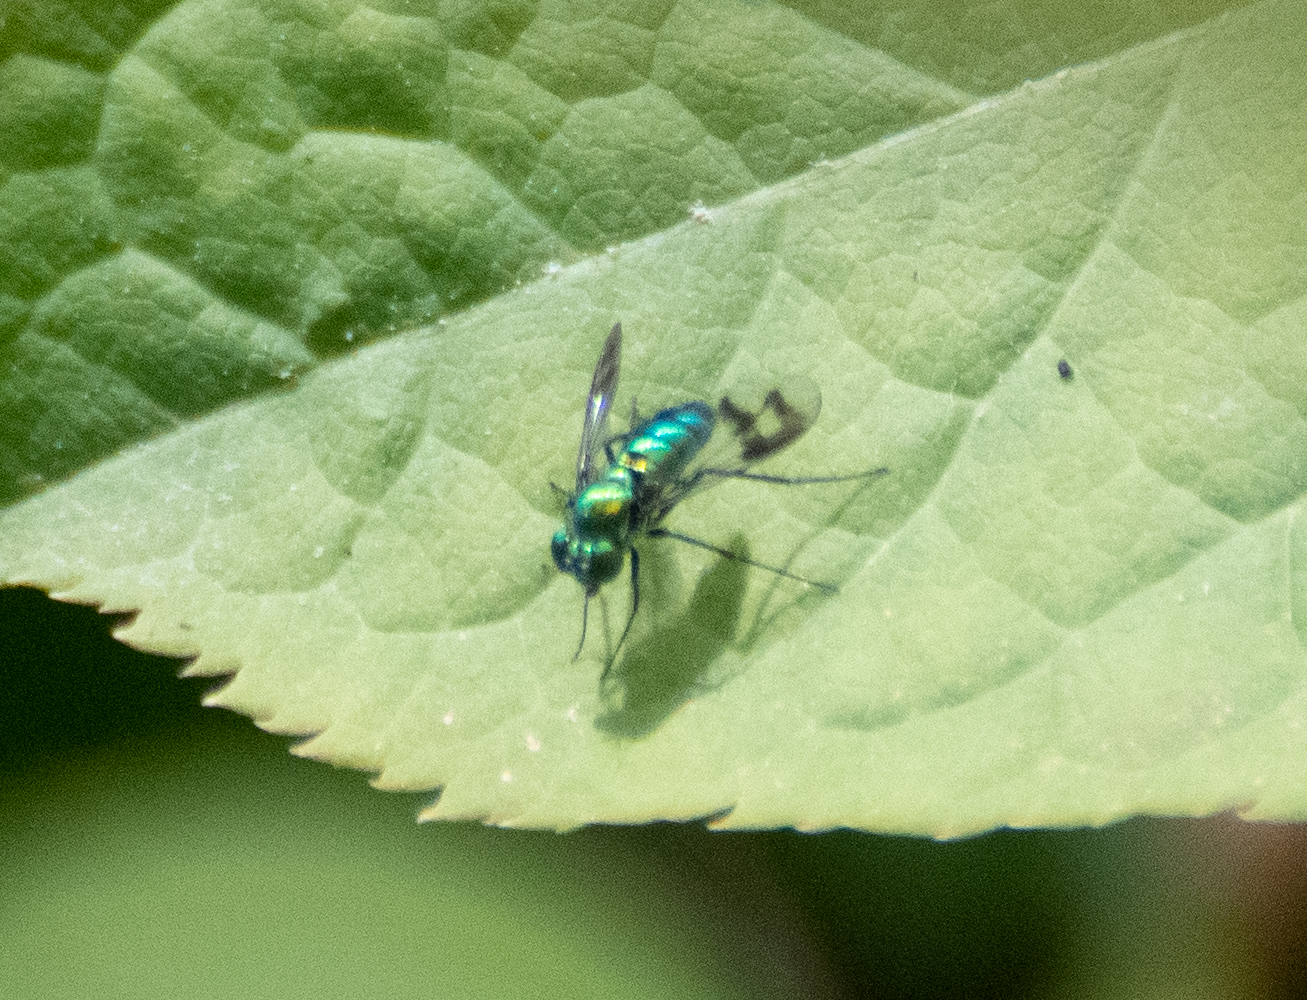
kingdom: Animalia
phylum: Arthropoda
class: Insecta
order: Diptera
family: Dolichopodidae
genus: Condylostylus
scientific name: Condylostylus occidentalis
